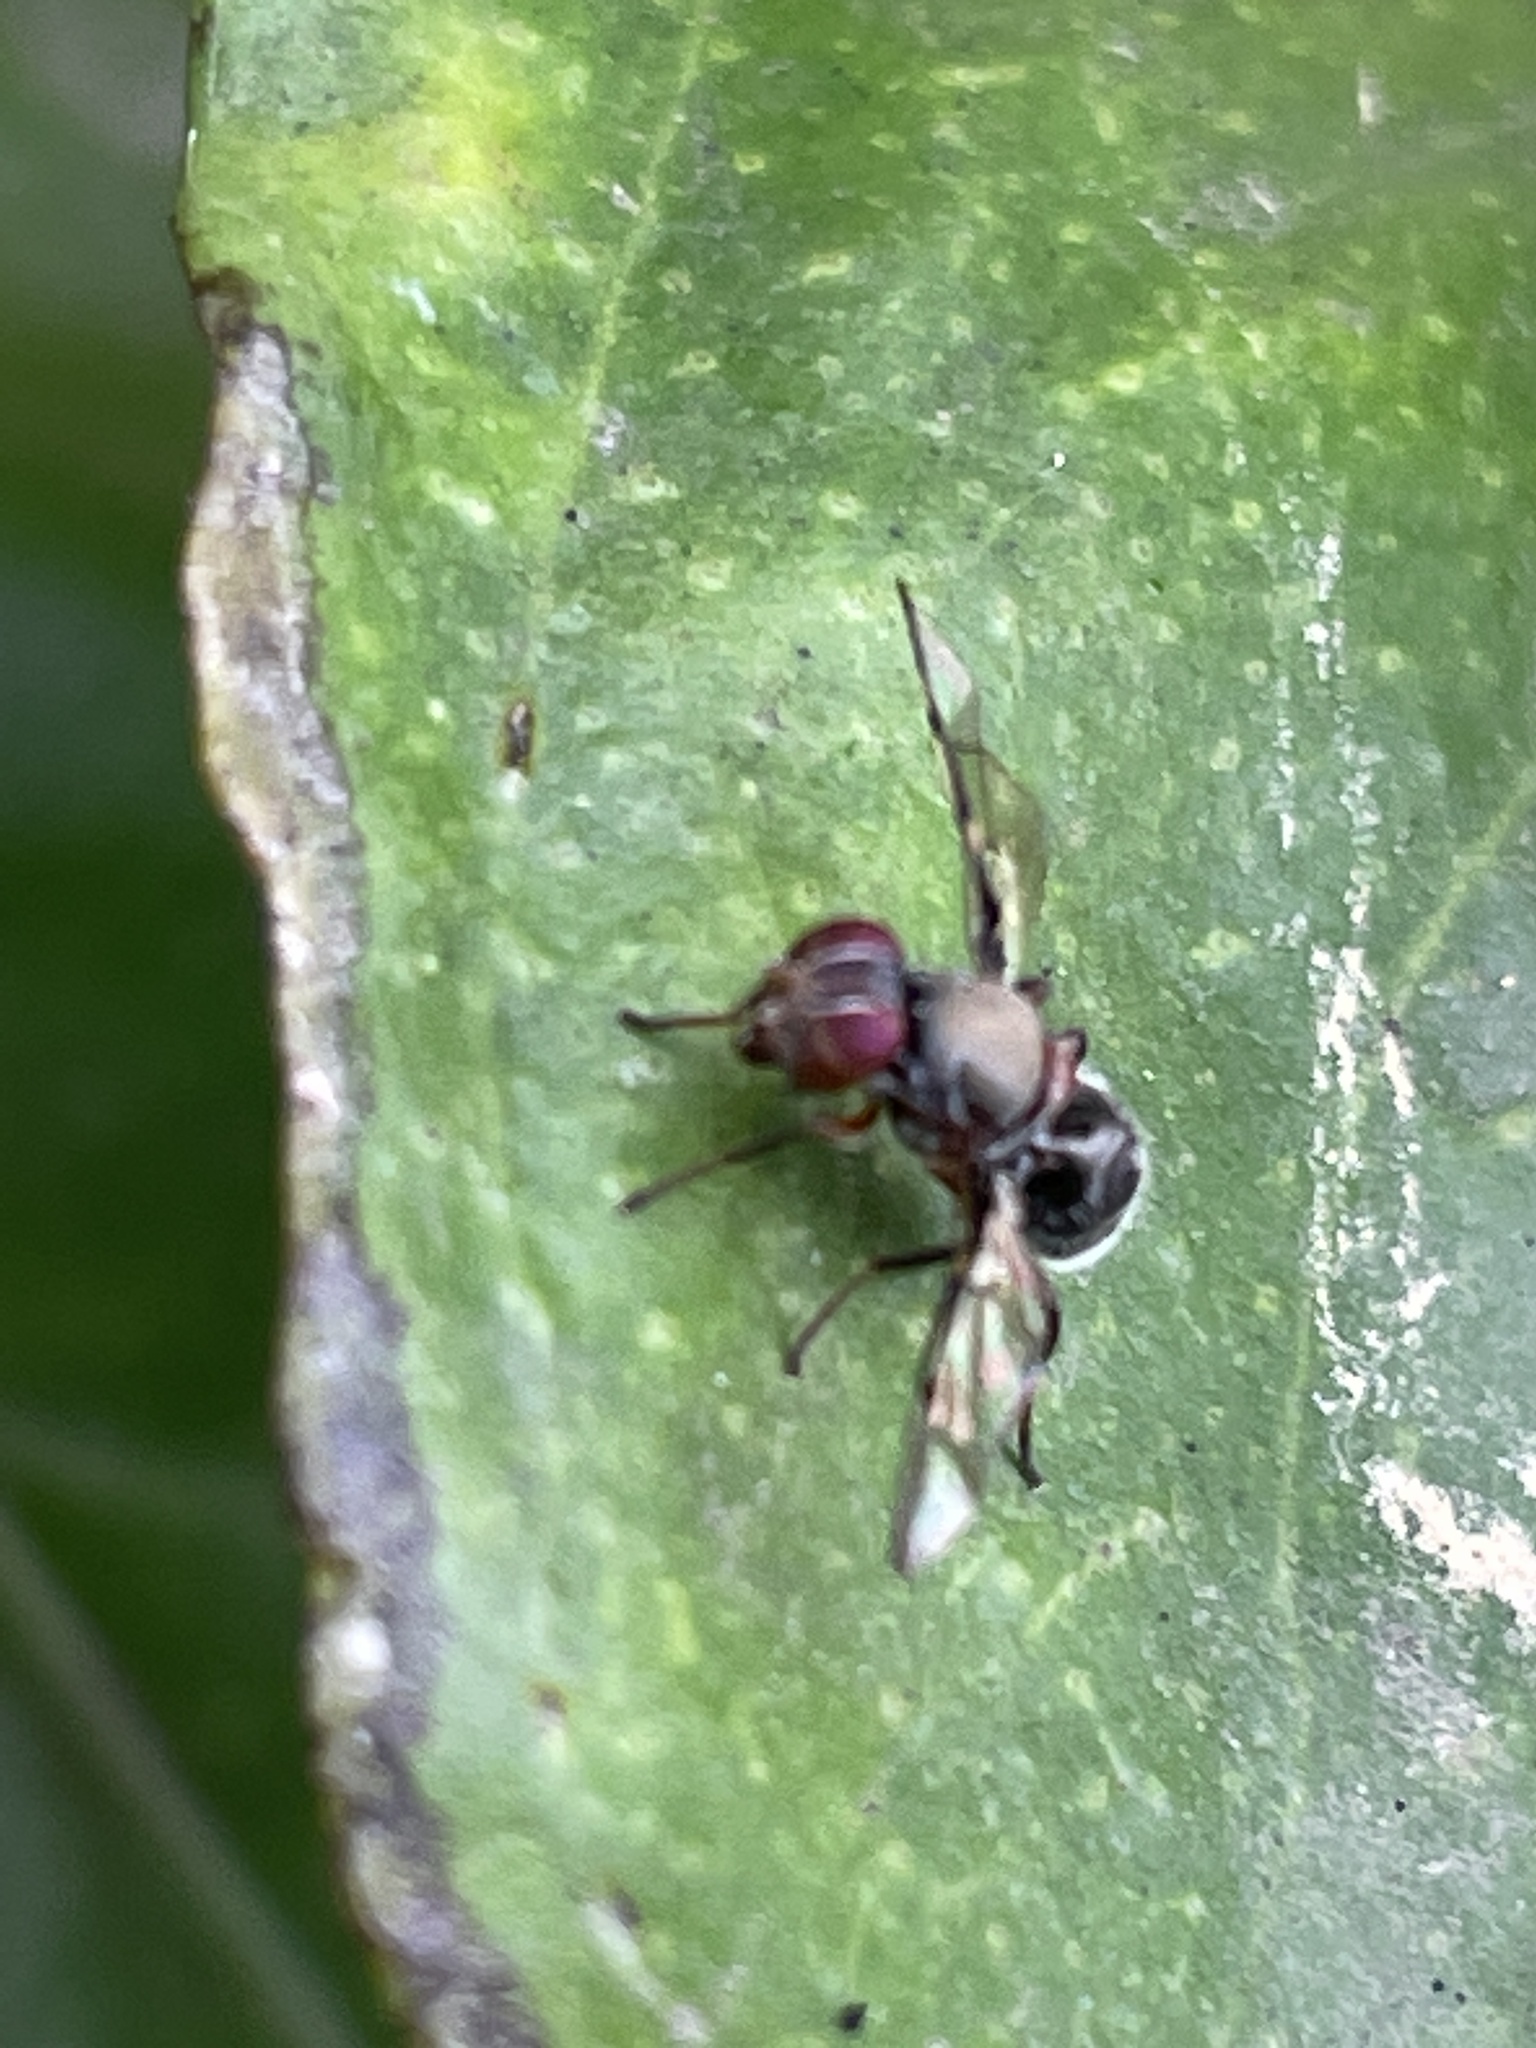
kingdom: Animalia
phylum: Arthropoda
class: Insecta
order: Diptera
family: Platystomatidae
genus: Pogonortalis
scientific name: Pogonortalis doclea
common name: Boatman fly
